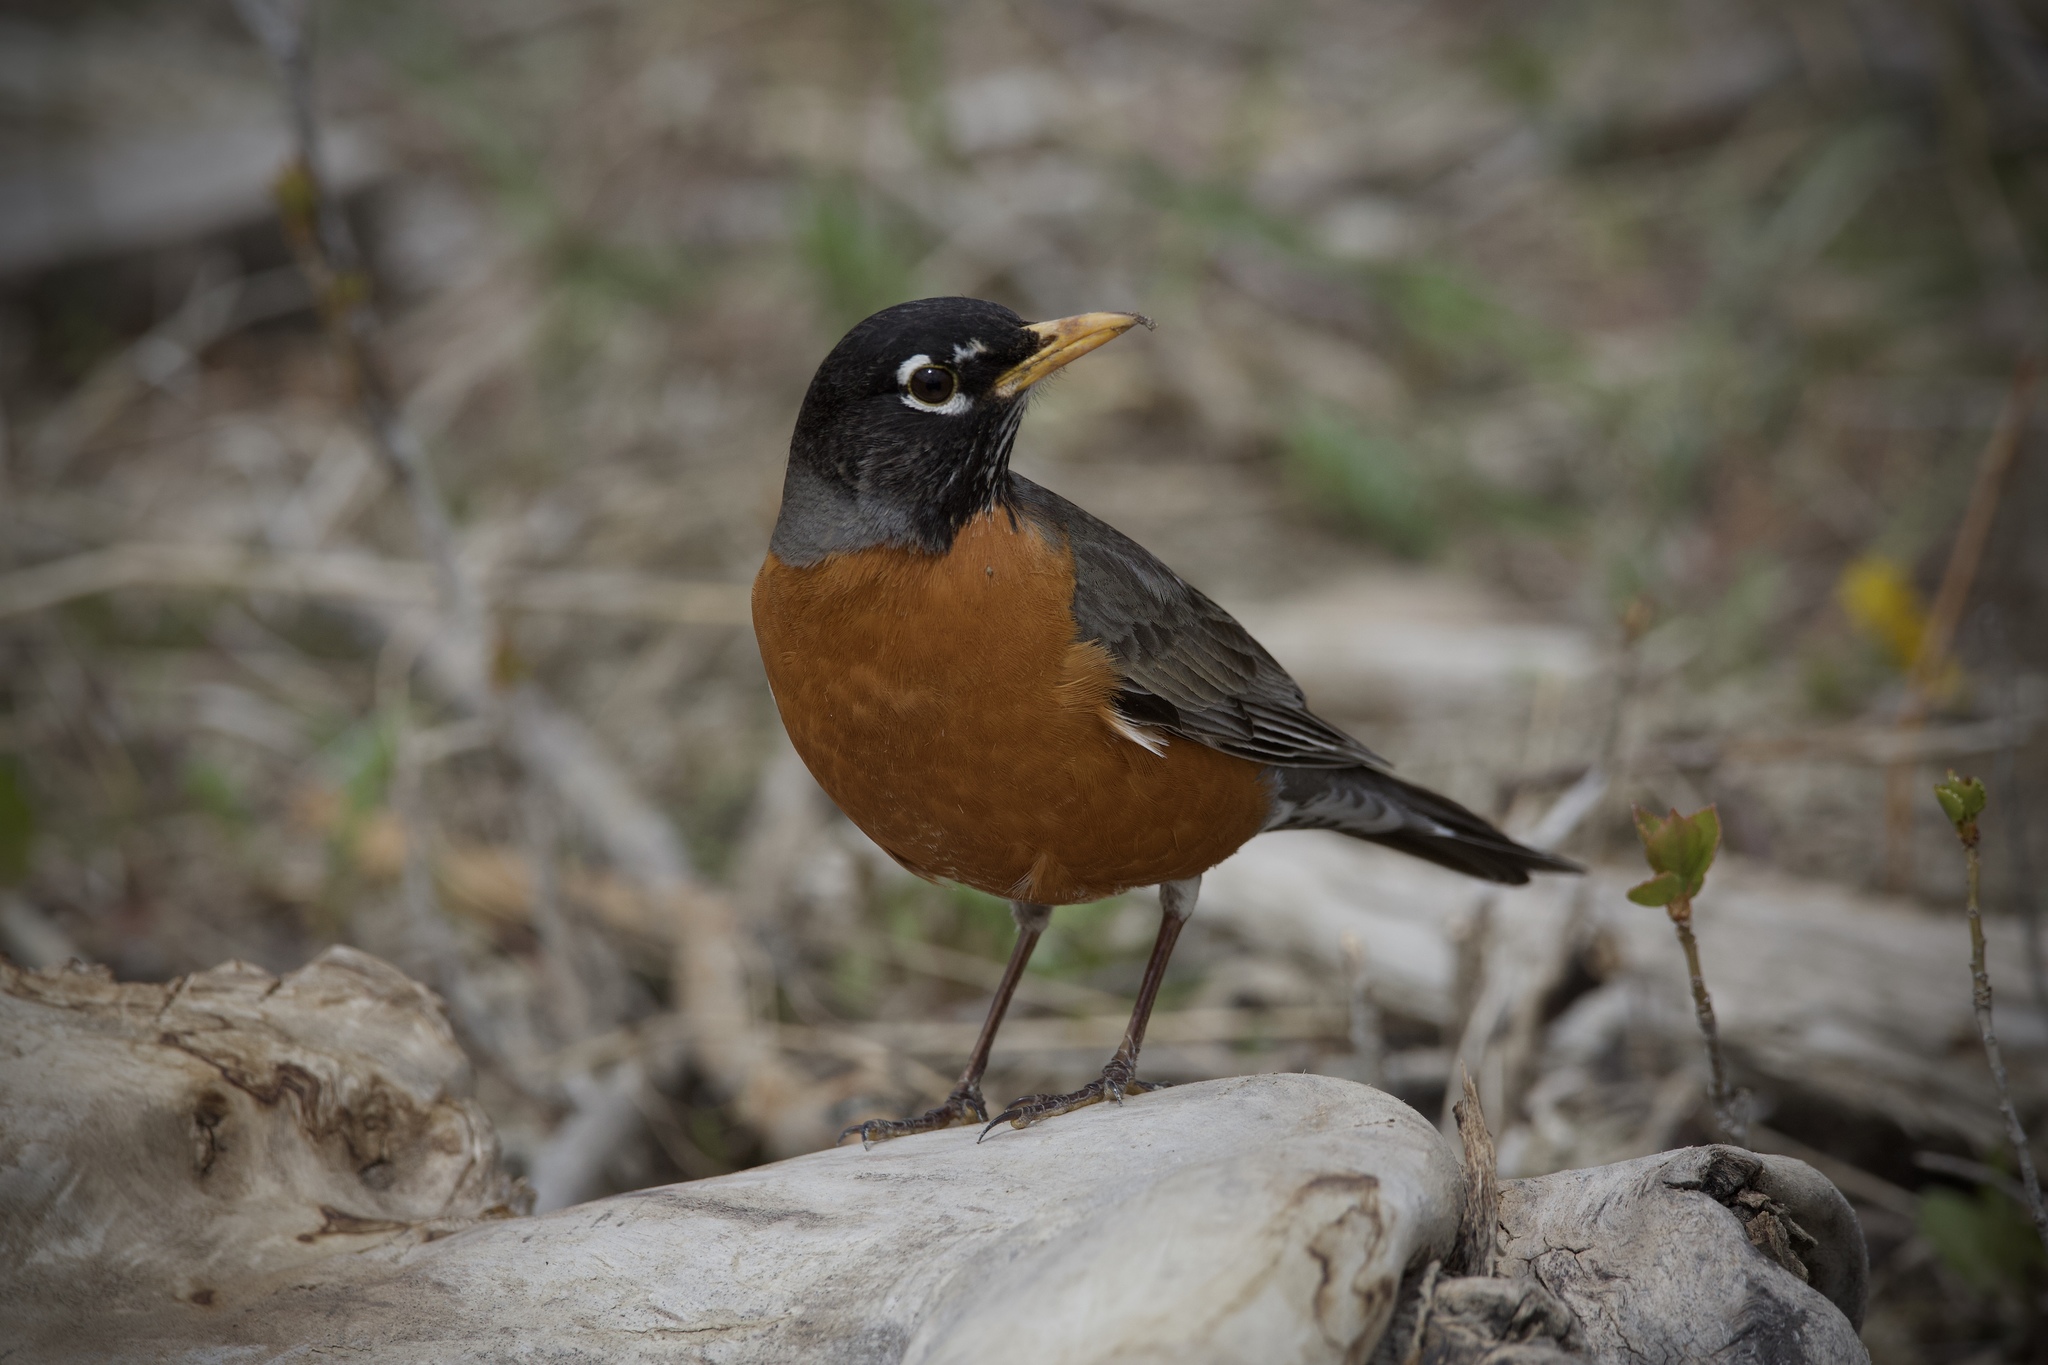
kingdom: Animalia
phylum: Chordata
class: Aves
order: Passeriformes
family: Turdidae
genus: Turdus
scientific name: Turdus migratorius
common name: American robin
